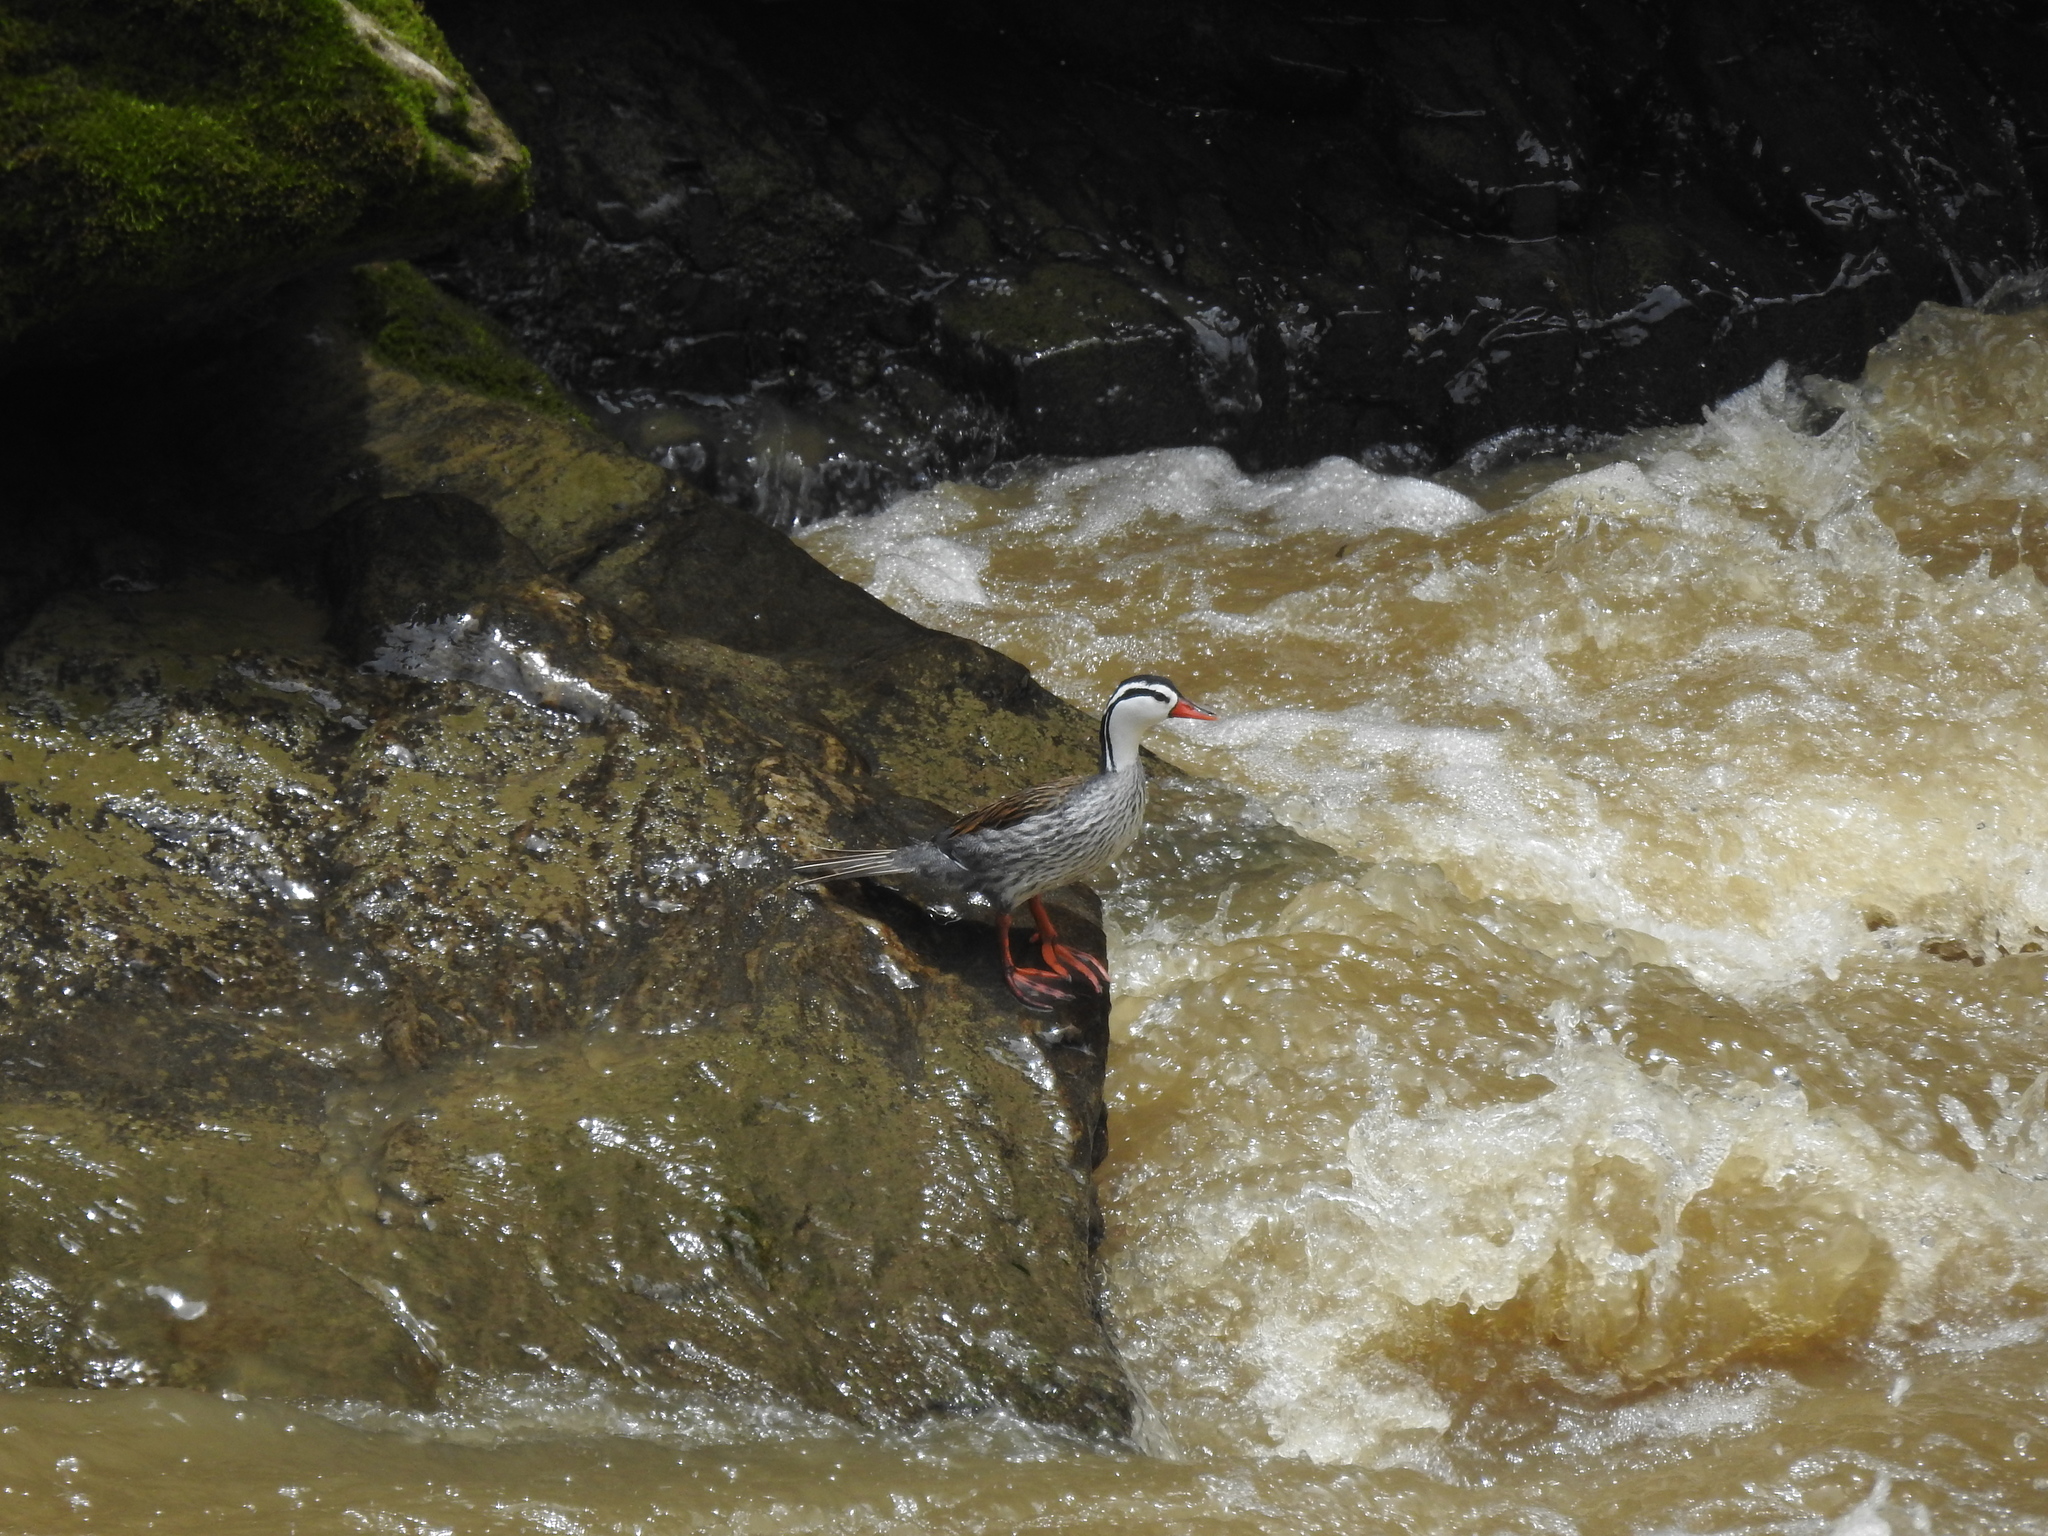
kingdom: Animalia
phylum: Chordata
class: Aves
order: Anseriformes
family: Anatidae
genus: Merganetta
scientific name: Merganetta armata
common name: Torrent duck
